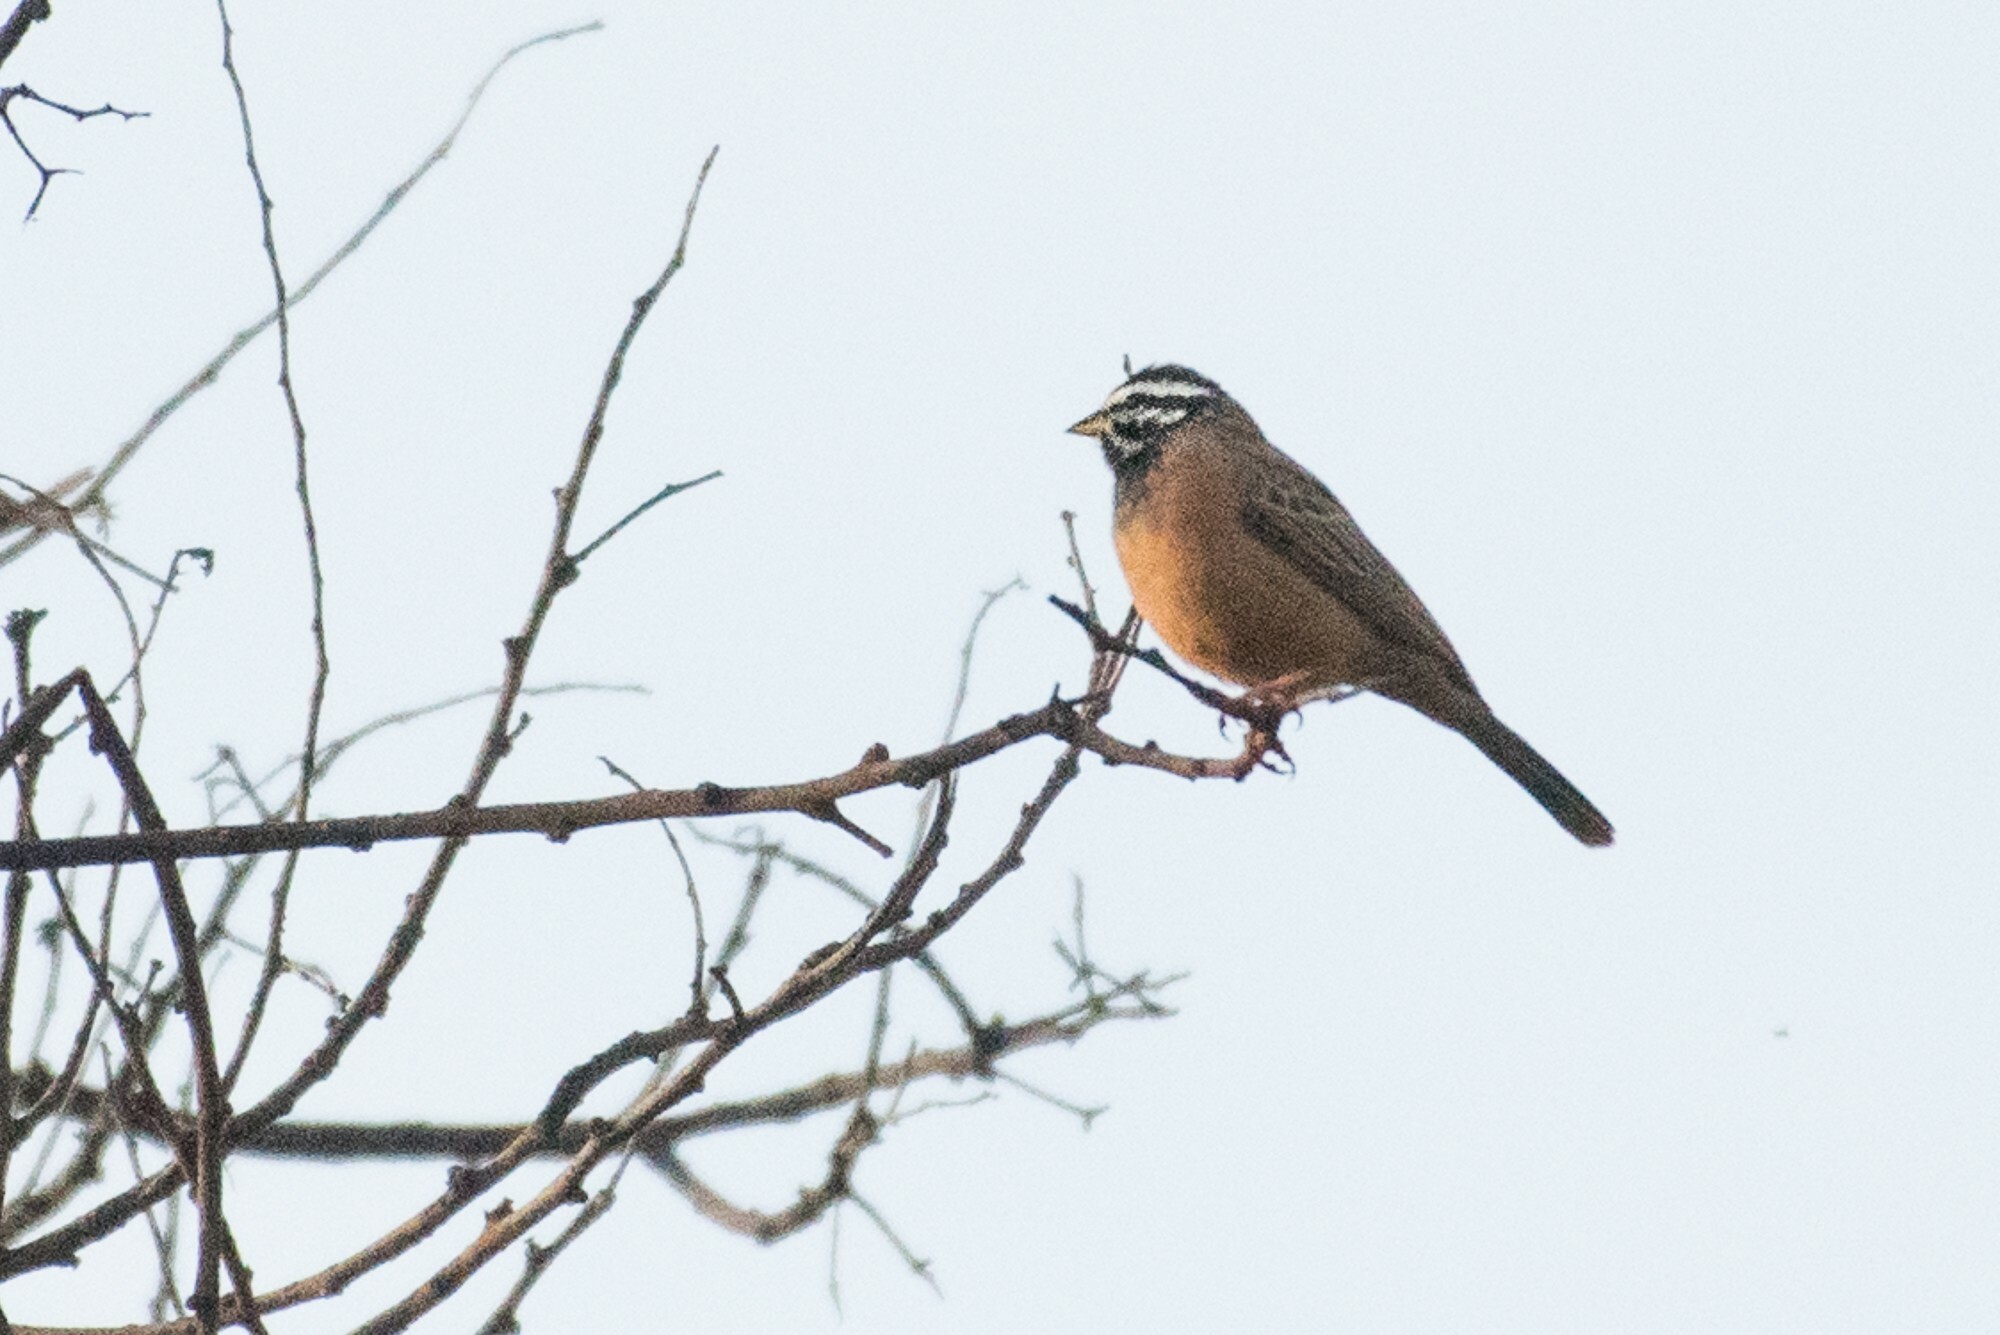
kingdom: Animalia
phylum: Chordata
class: Aves
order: Passeriformes
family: Emberizidae
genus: Emberiza
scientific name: Emberiza tahapisi
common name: Cinnamon-breasted bunting
